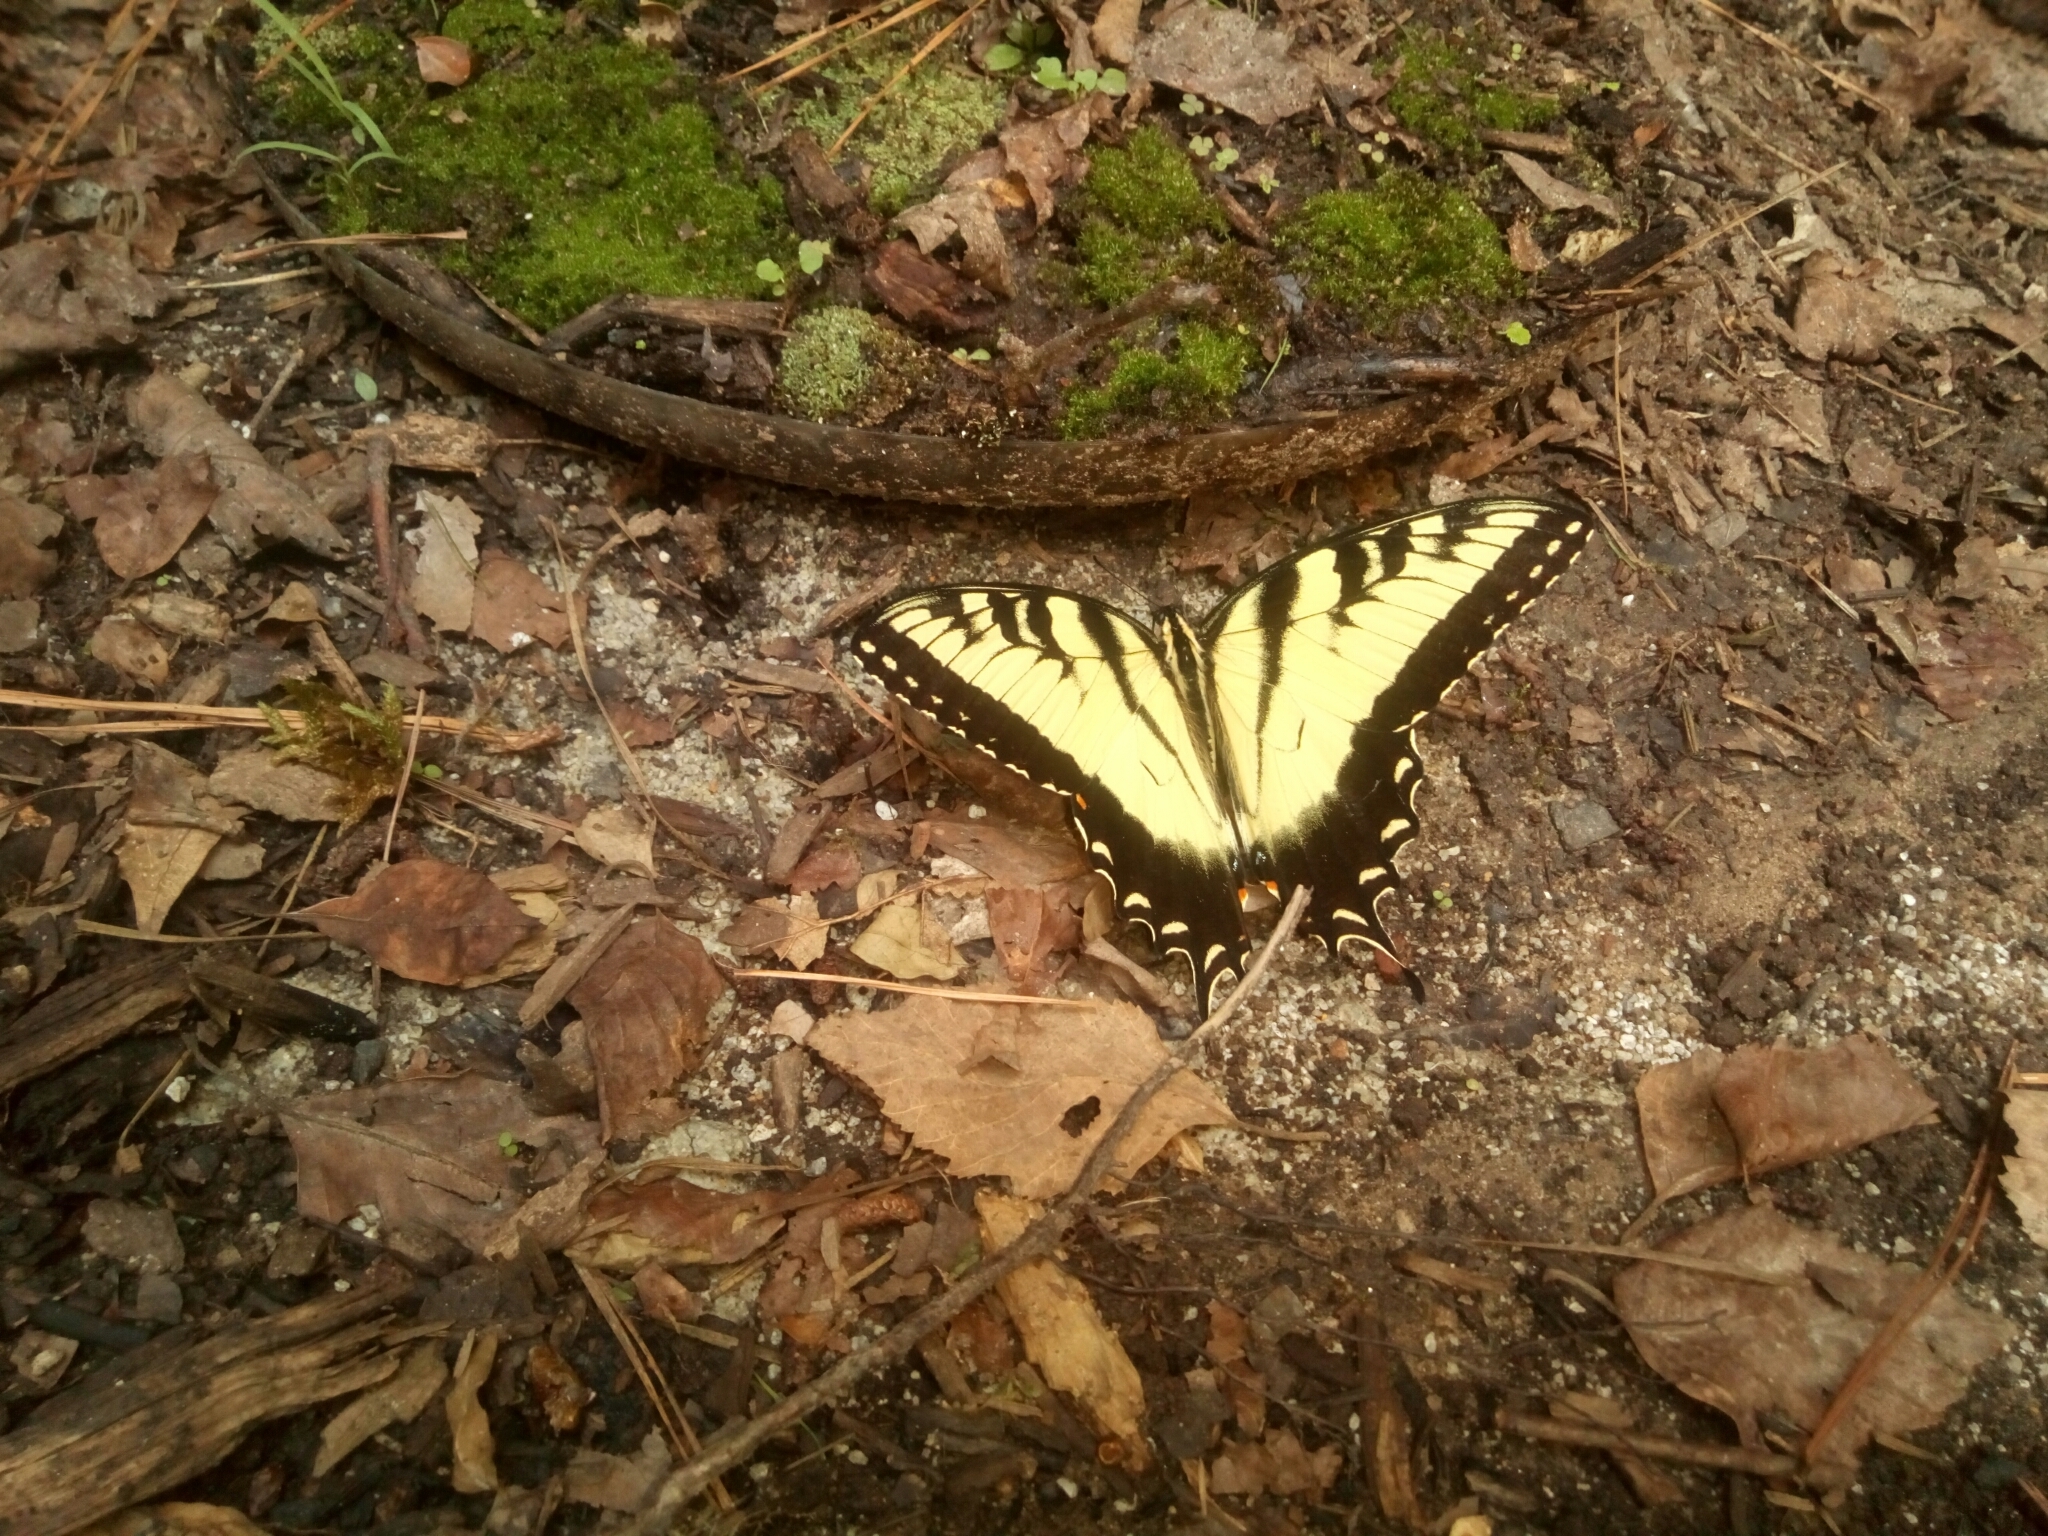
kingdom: Animalia
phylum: Arthropoda
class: Insecta
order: Lepidoptera
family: Papilionidae
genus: Papilio
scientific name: Papilio glaucus
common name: Tiger swallowtail
